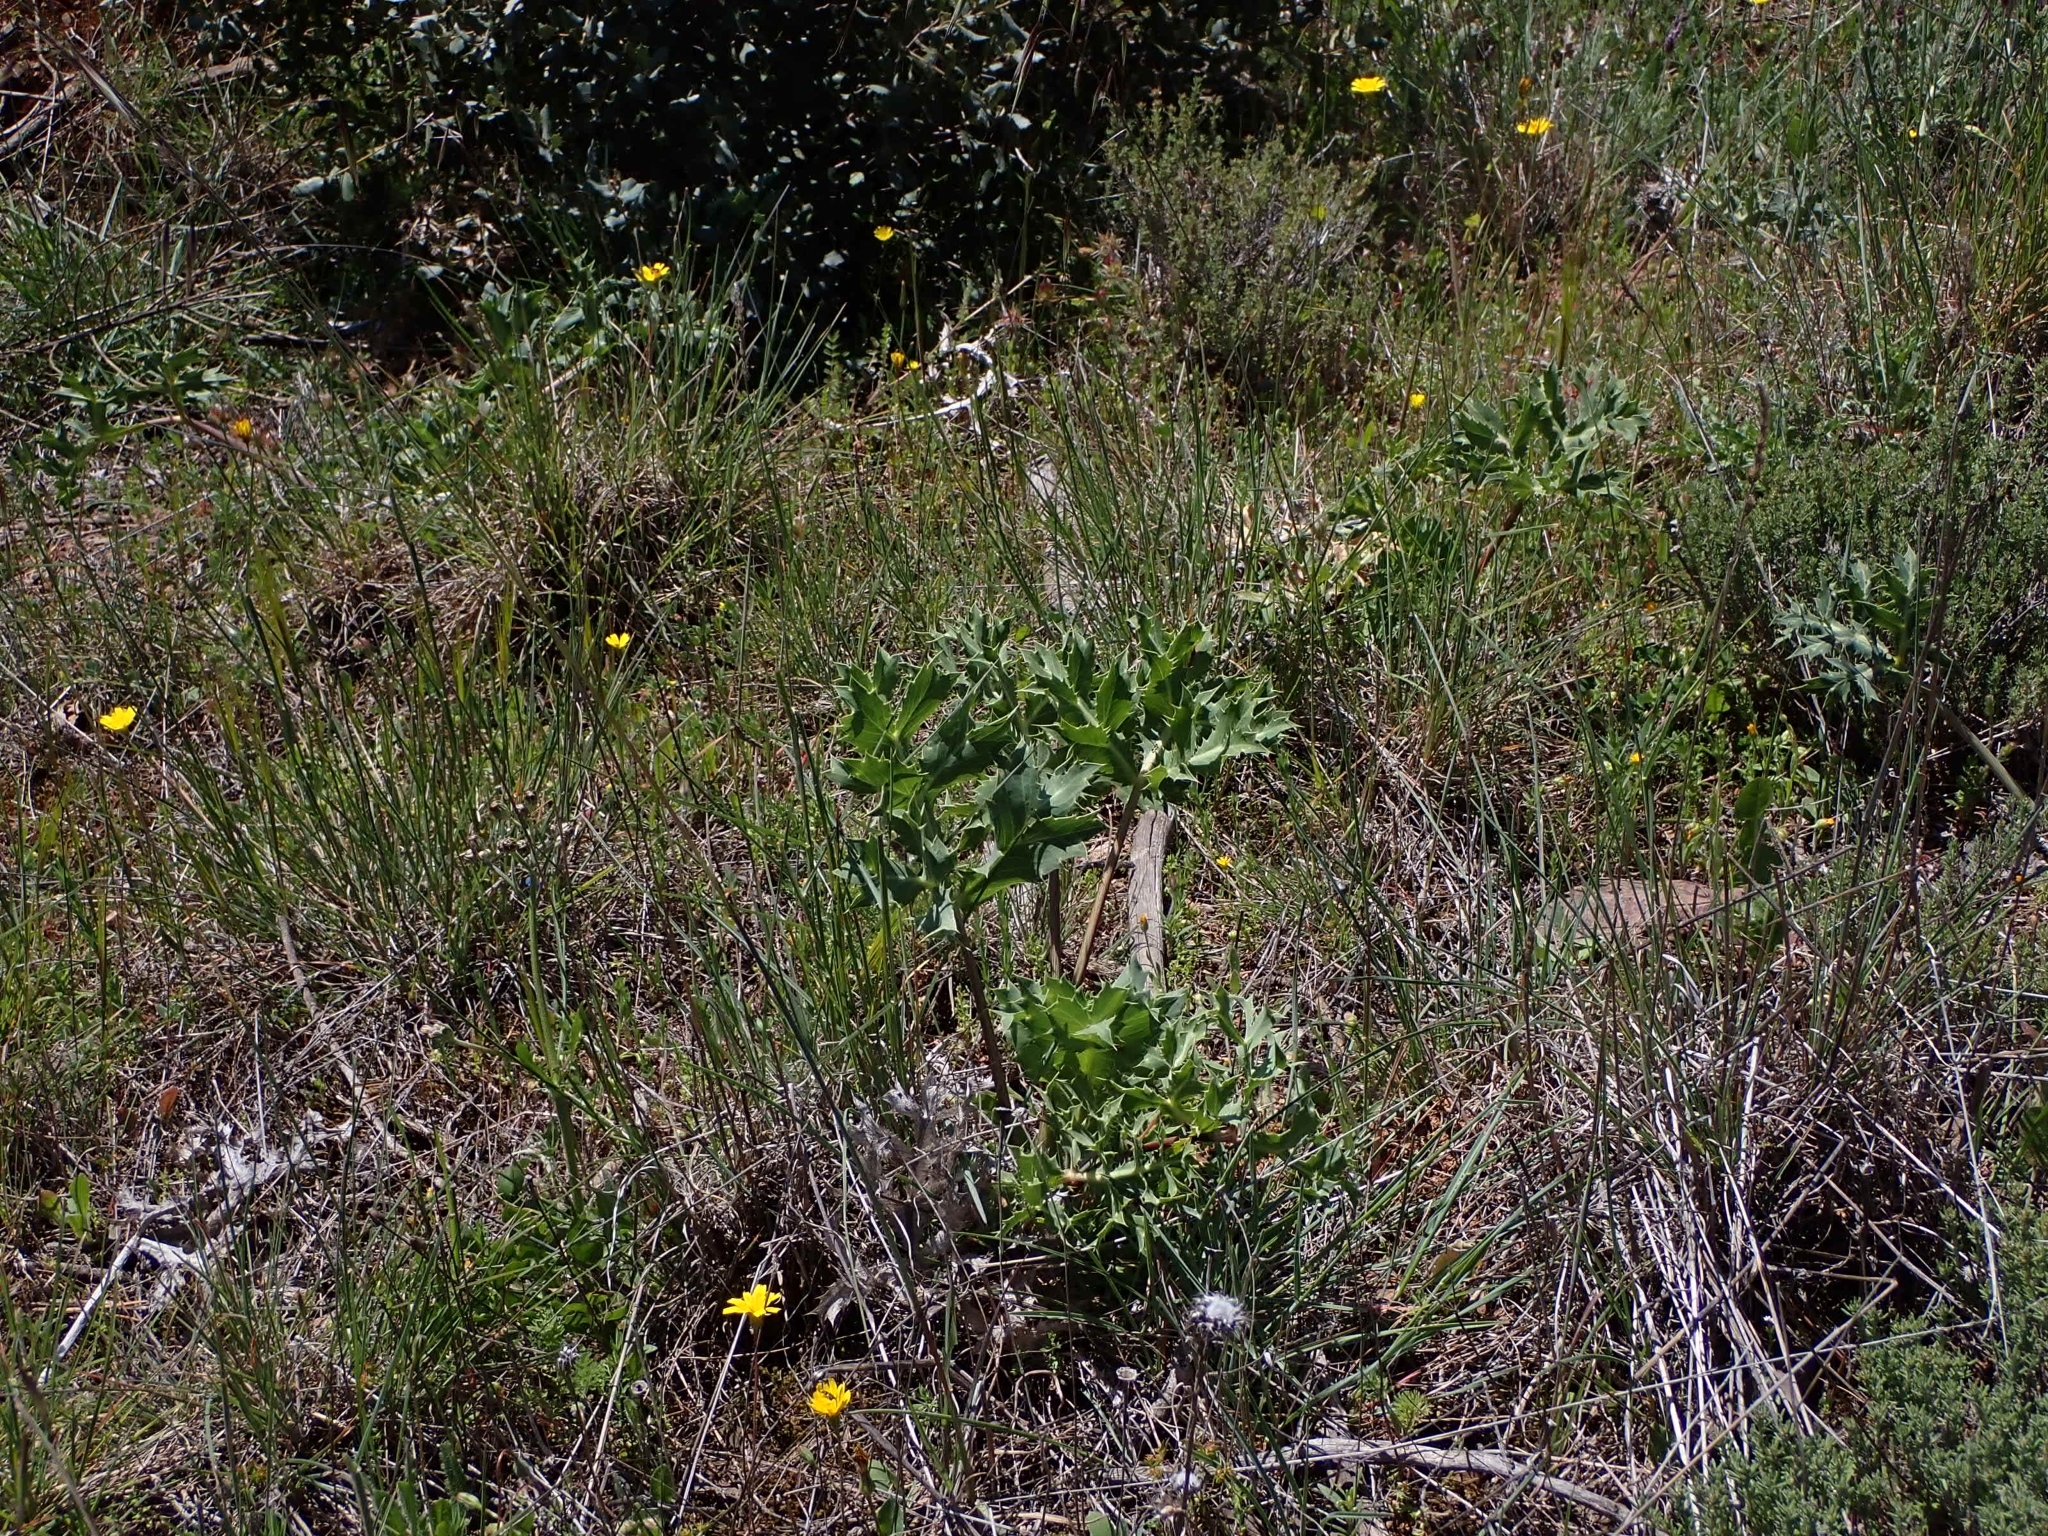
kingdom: Plantae
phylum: Tracheophyta
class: Magnoliopsida
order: Apiales
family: Apiaceae
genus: Eryngium
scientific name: Eryngium campestre
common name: Field eryngo
